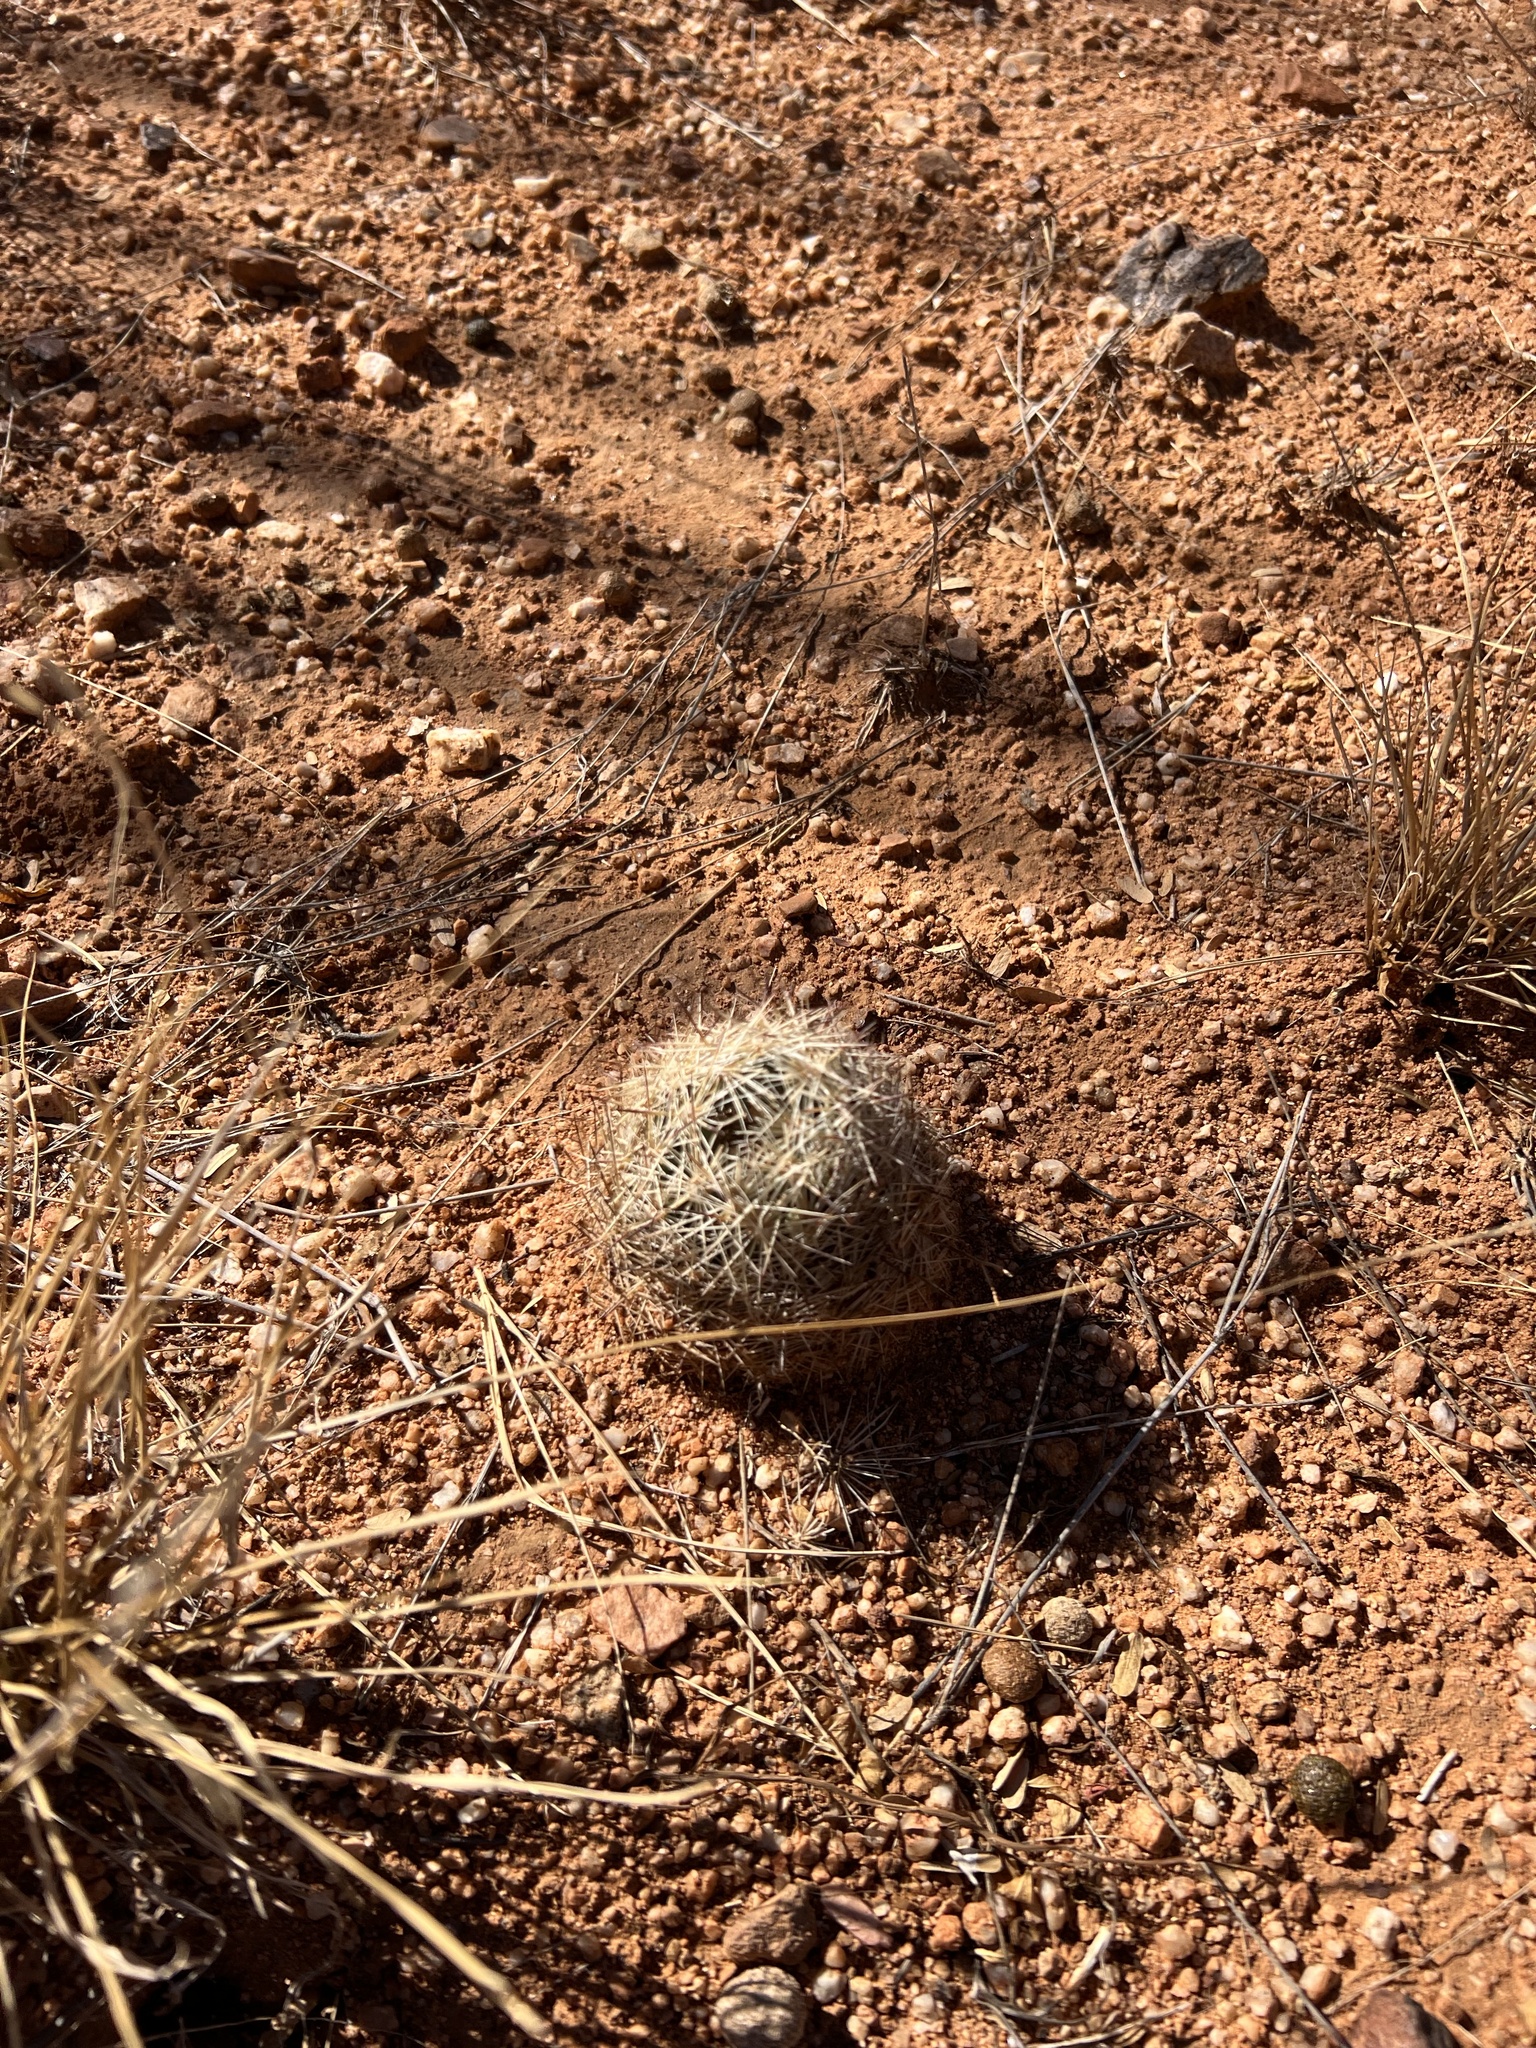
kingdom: Plantae
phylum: Tracheophyta
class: Magnoliopsida
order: Caryophyllales
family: Cactaceae
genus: Pelecyphora
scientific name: Pelecyphora vivipara
